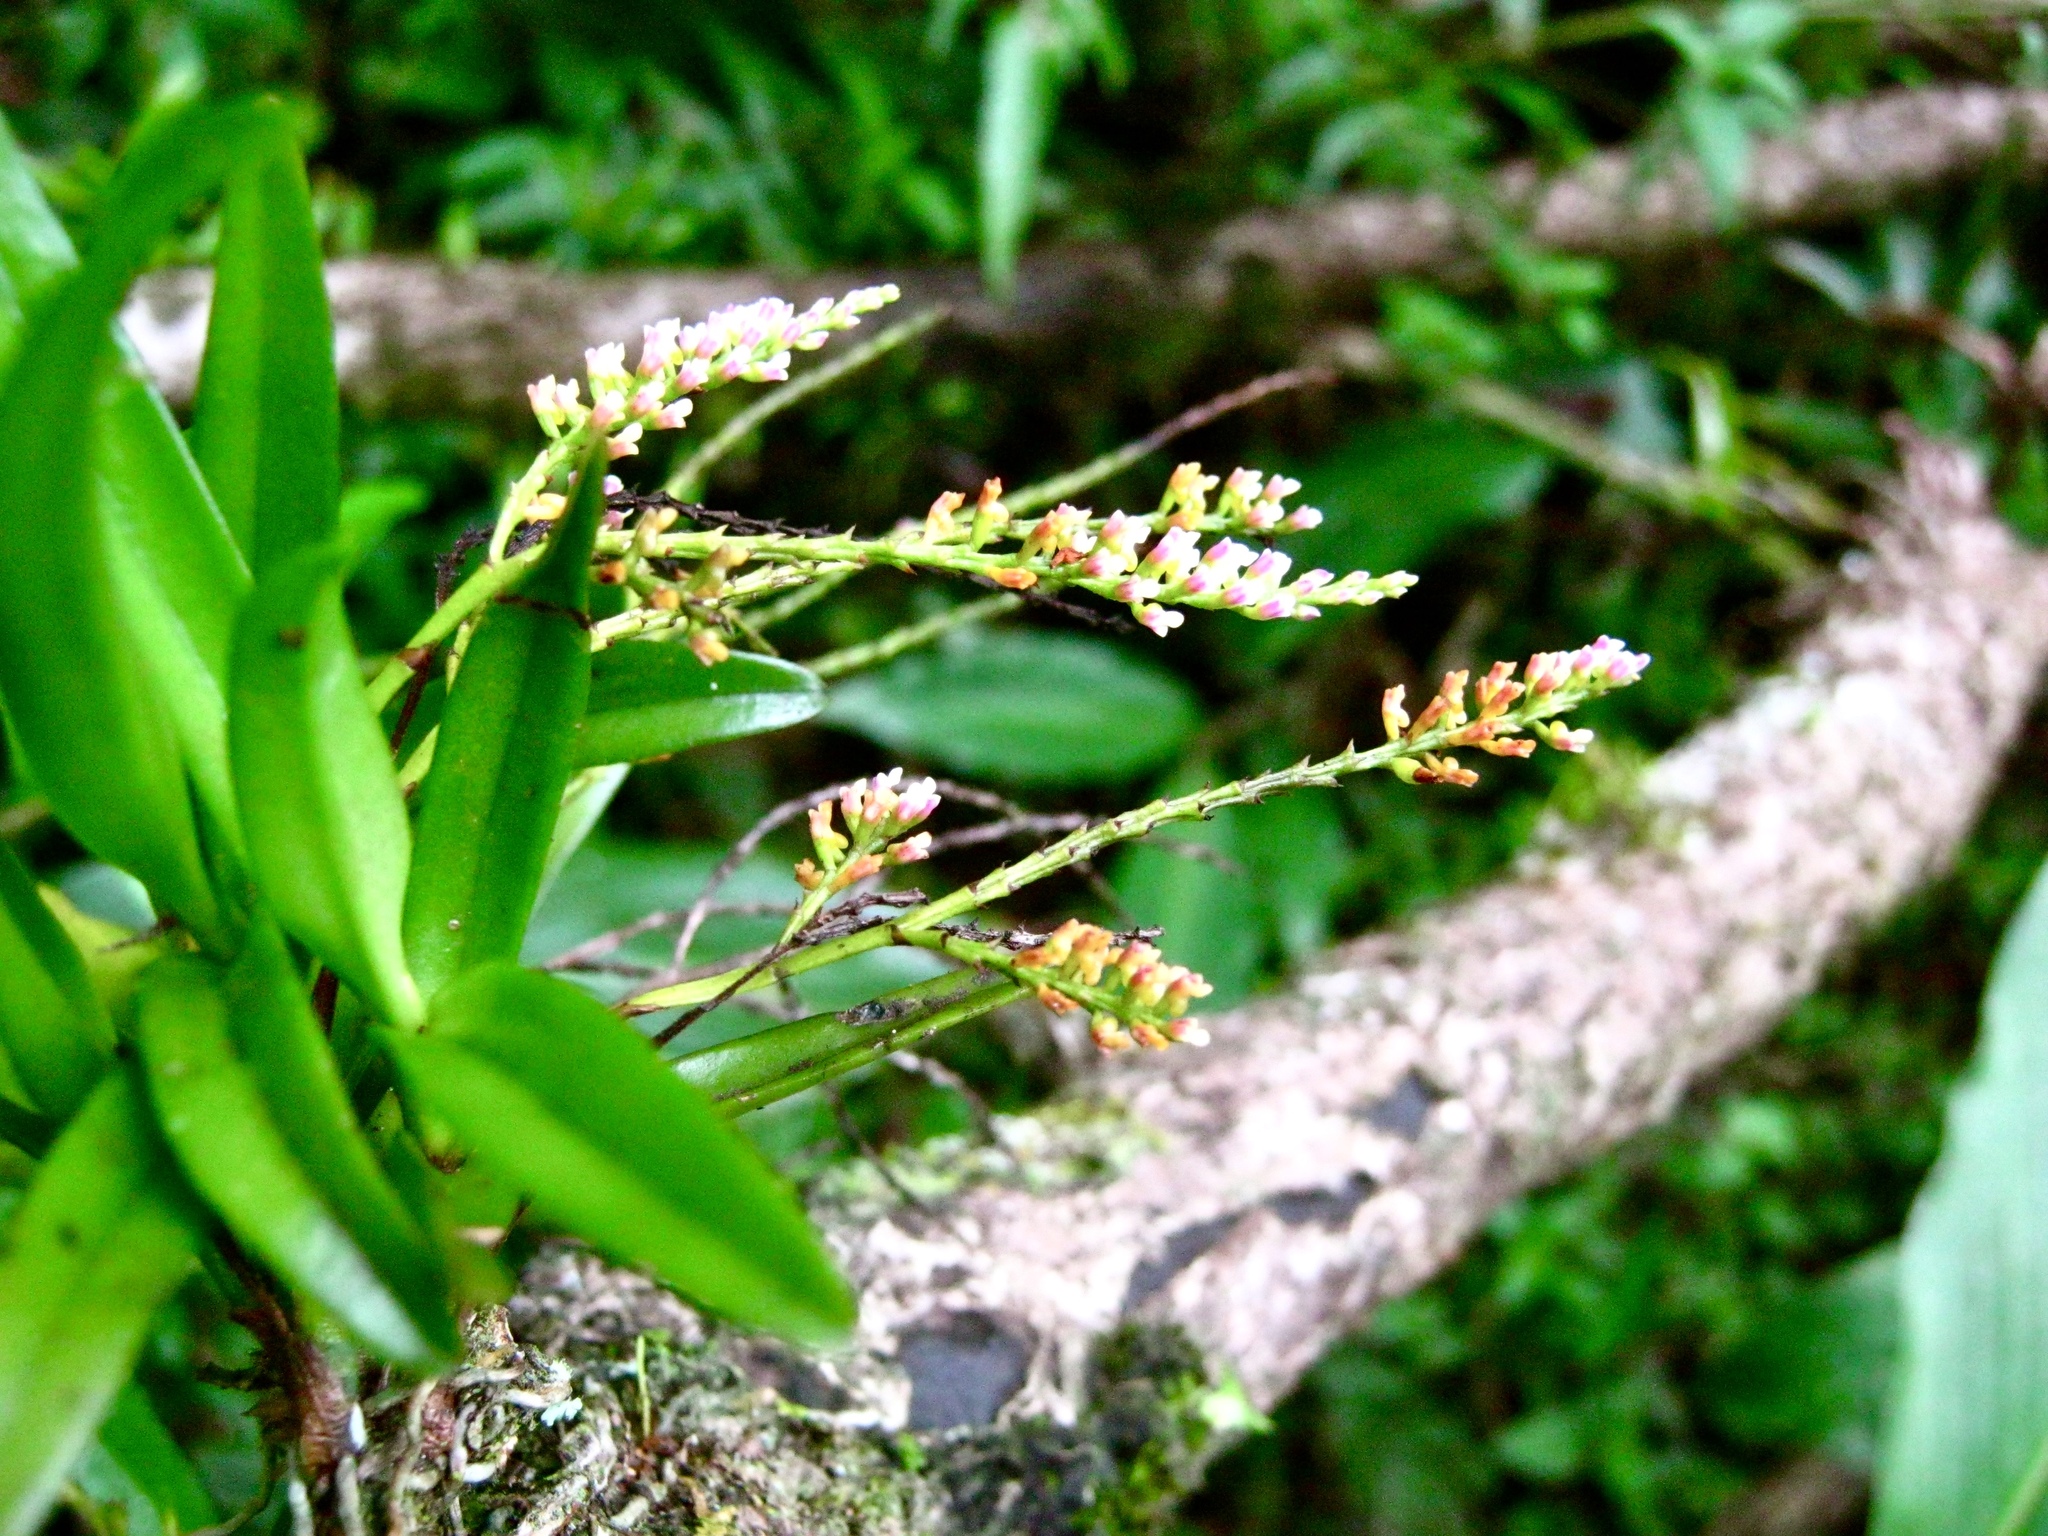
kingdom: Plantae
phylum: Tracheophyta
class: Liliopsida
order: Asparagales
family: Orchidaceae
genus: Schoenorchis
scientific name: Schoenorchis paniculata
